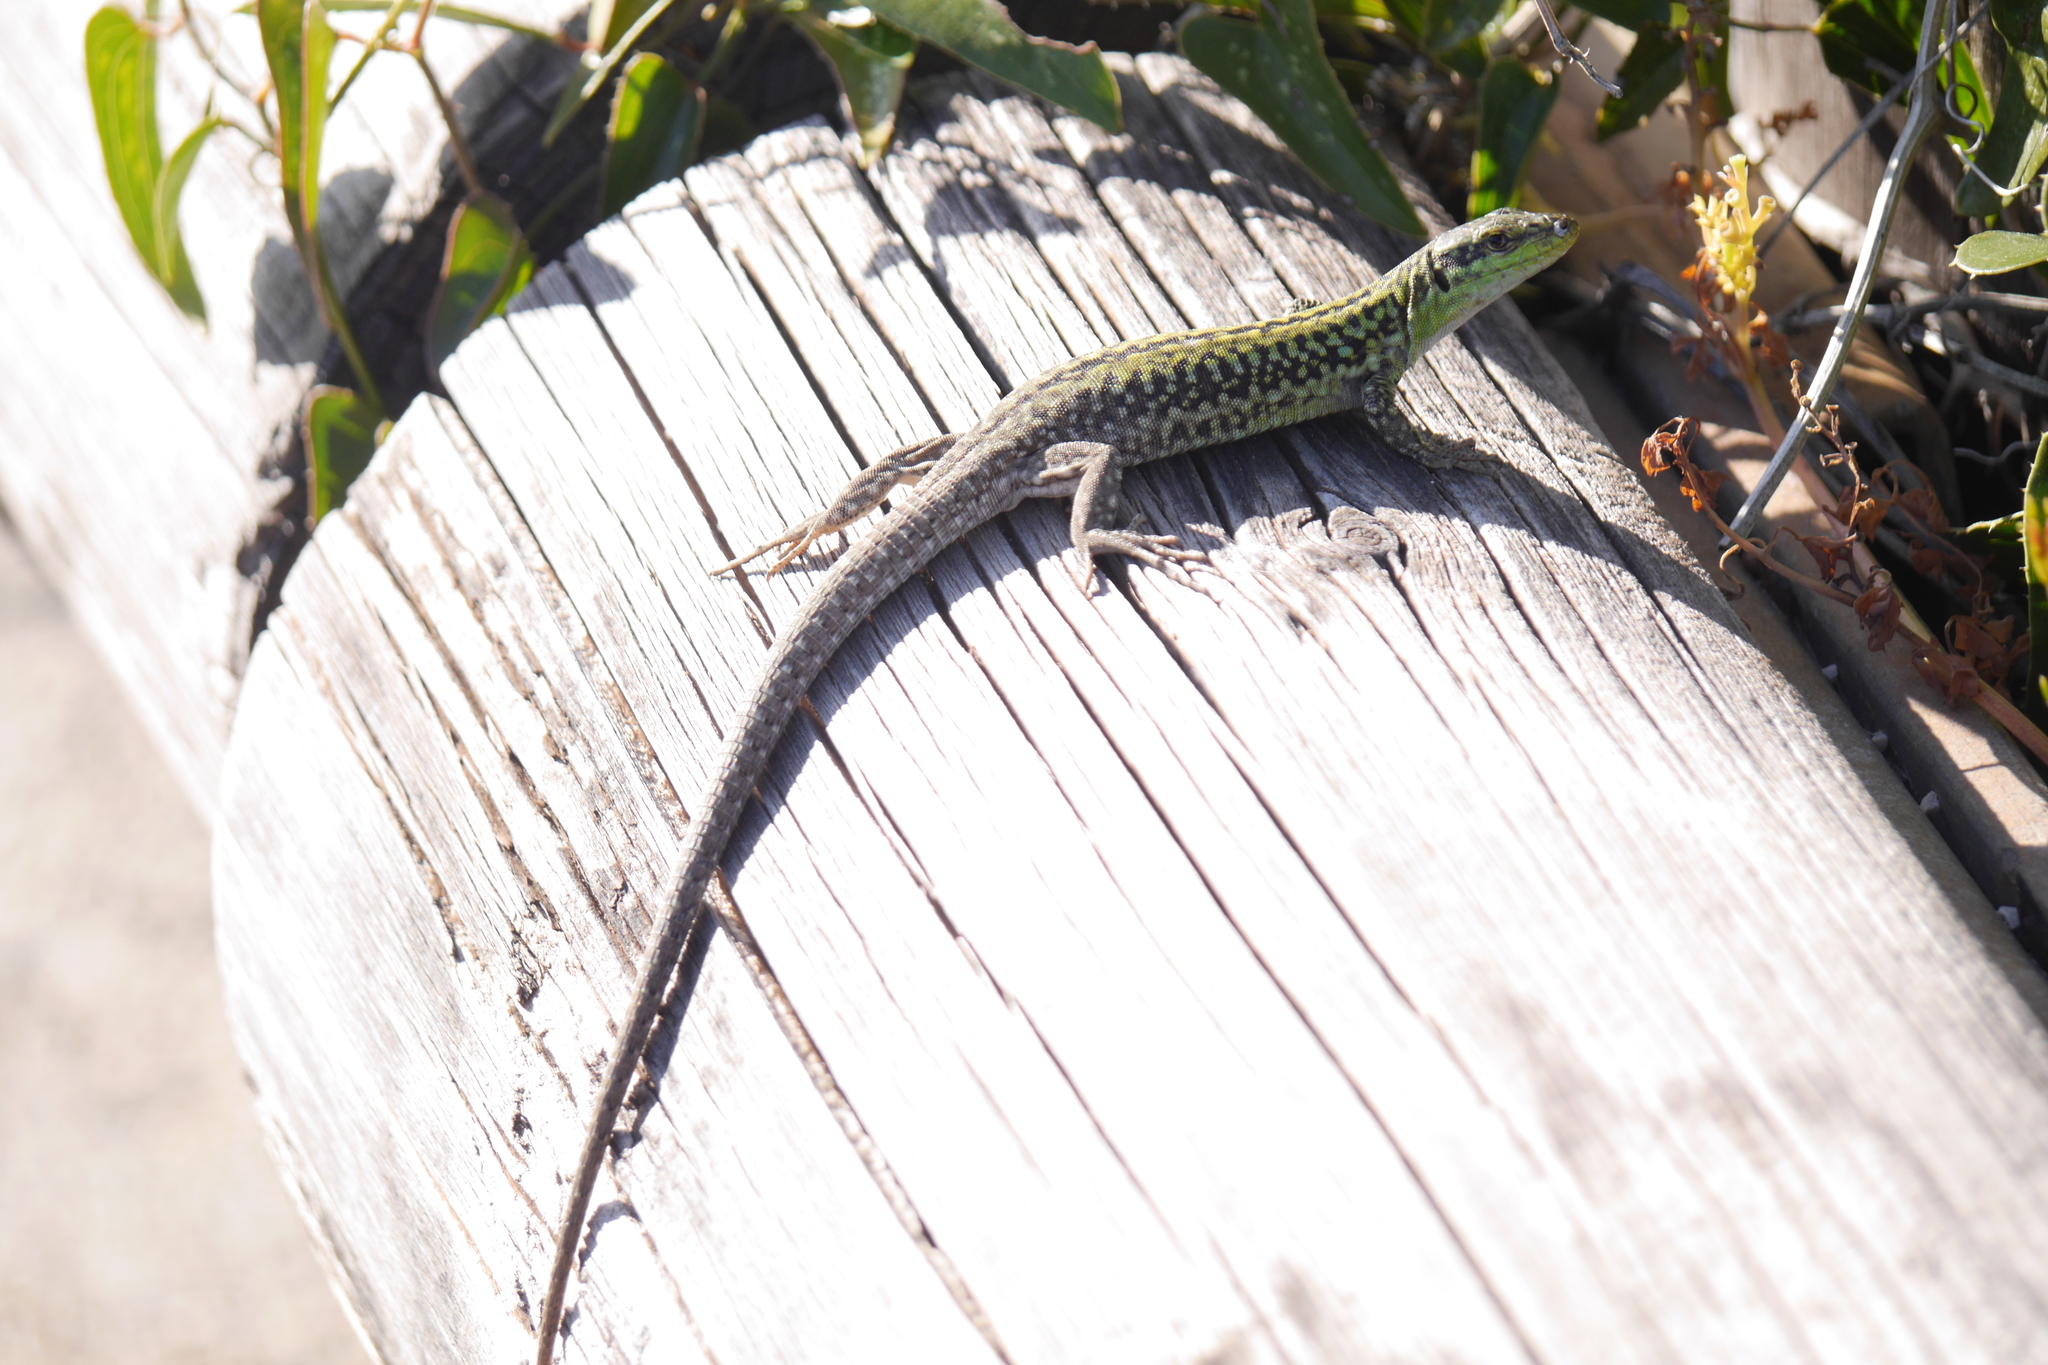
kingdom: Animalia
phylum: Chordata
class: Squamata
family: Lacertidae
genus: Podarcis
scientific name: Podarcis siculus
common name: Italian wall lizard
